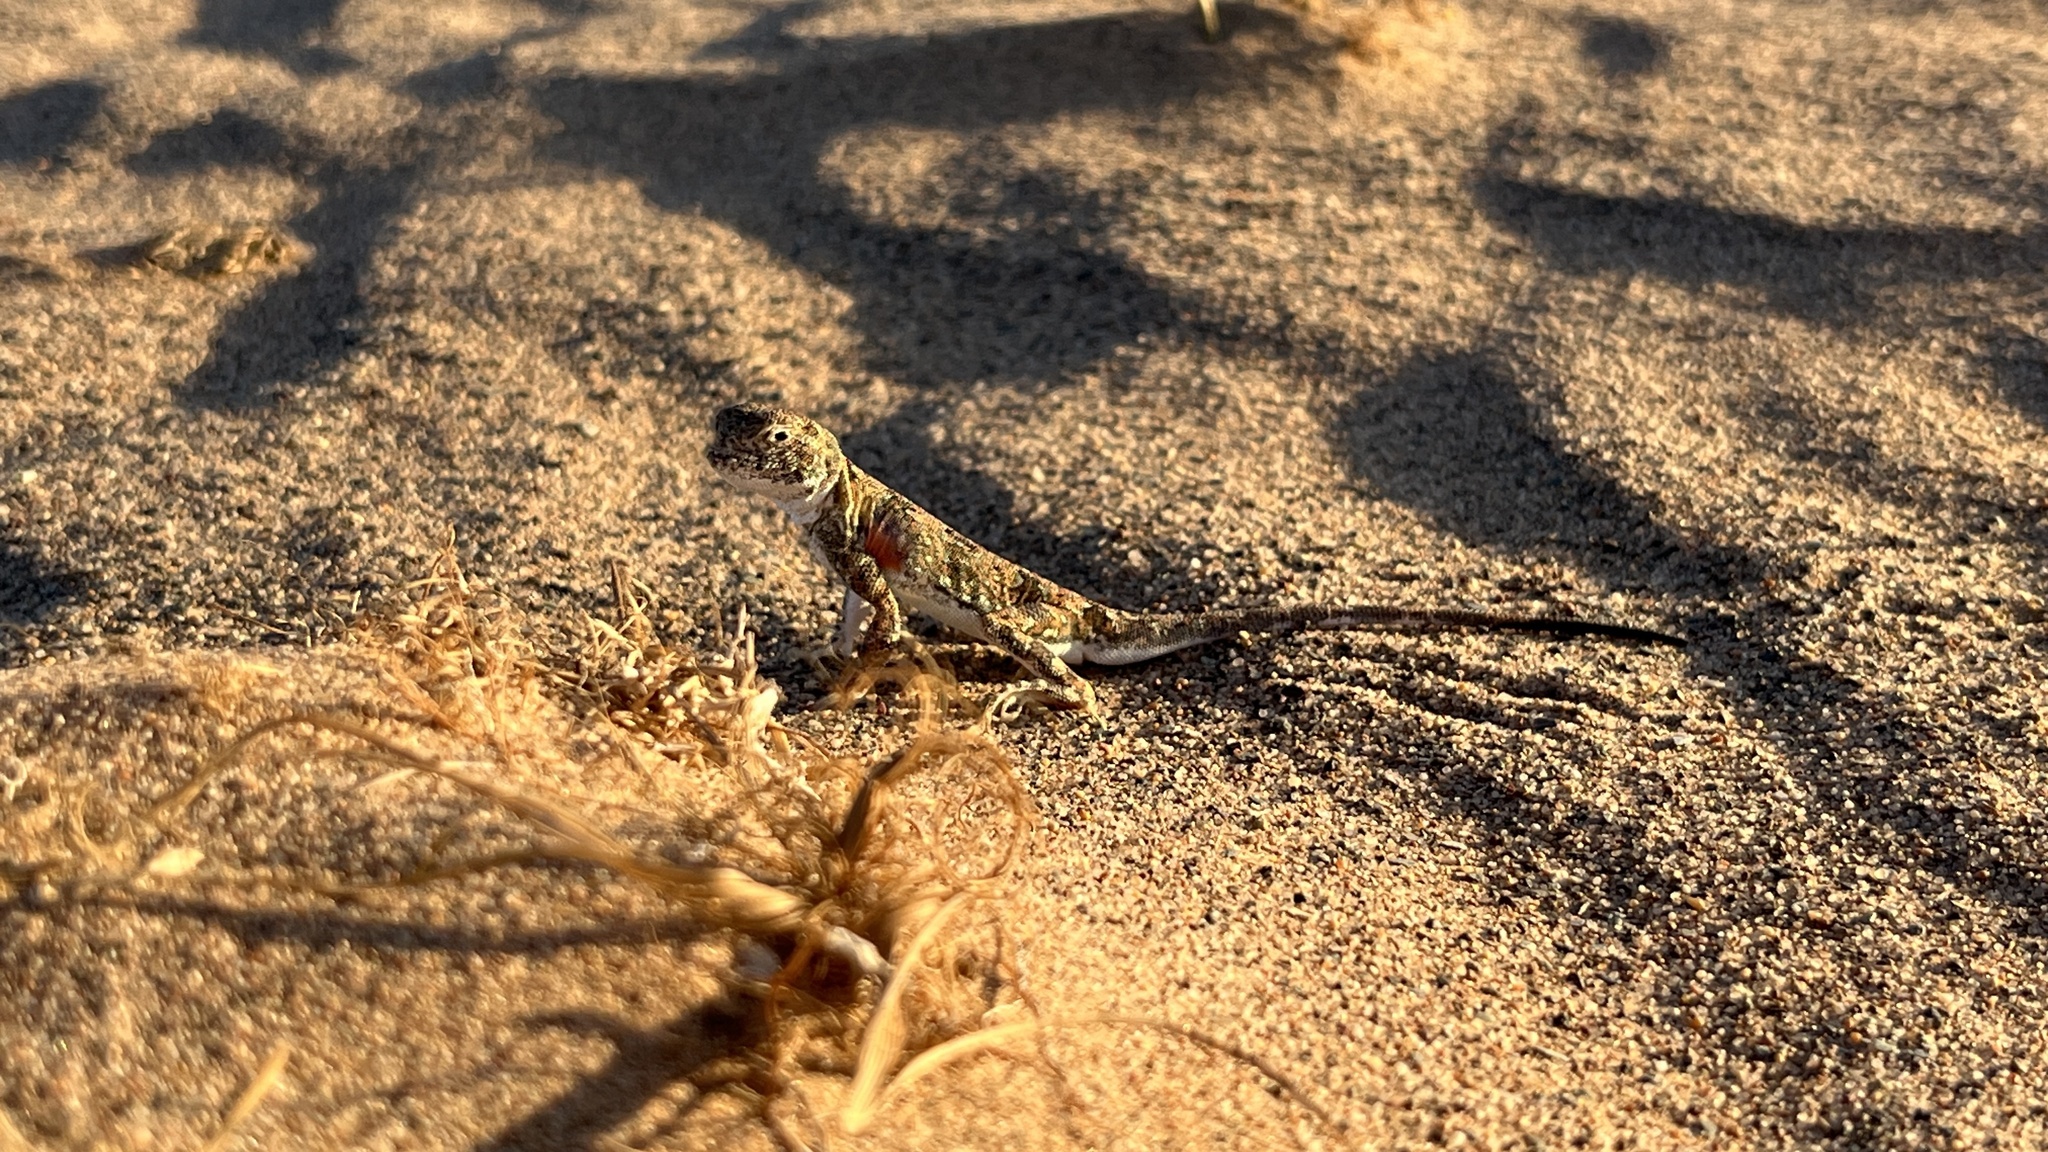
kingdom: Animalia
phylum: Chordata
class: Squamata
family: Agamidae
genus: Phrynocephalus
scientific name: Phrynocephalus versicolor
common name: Tuvan toad-headed agama
